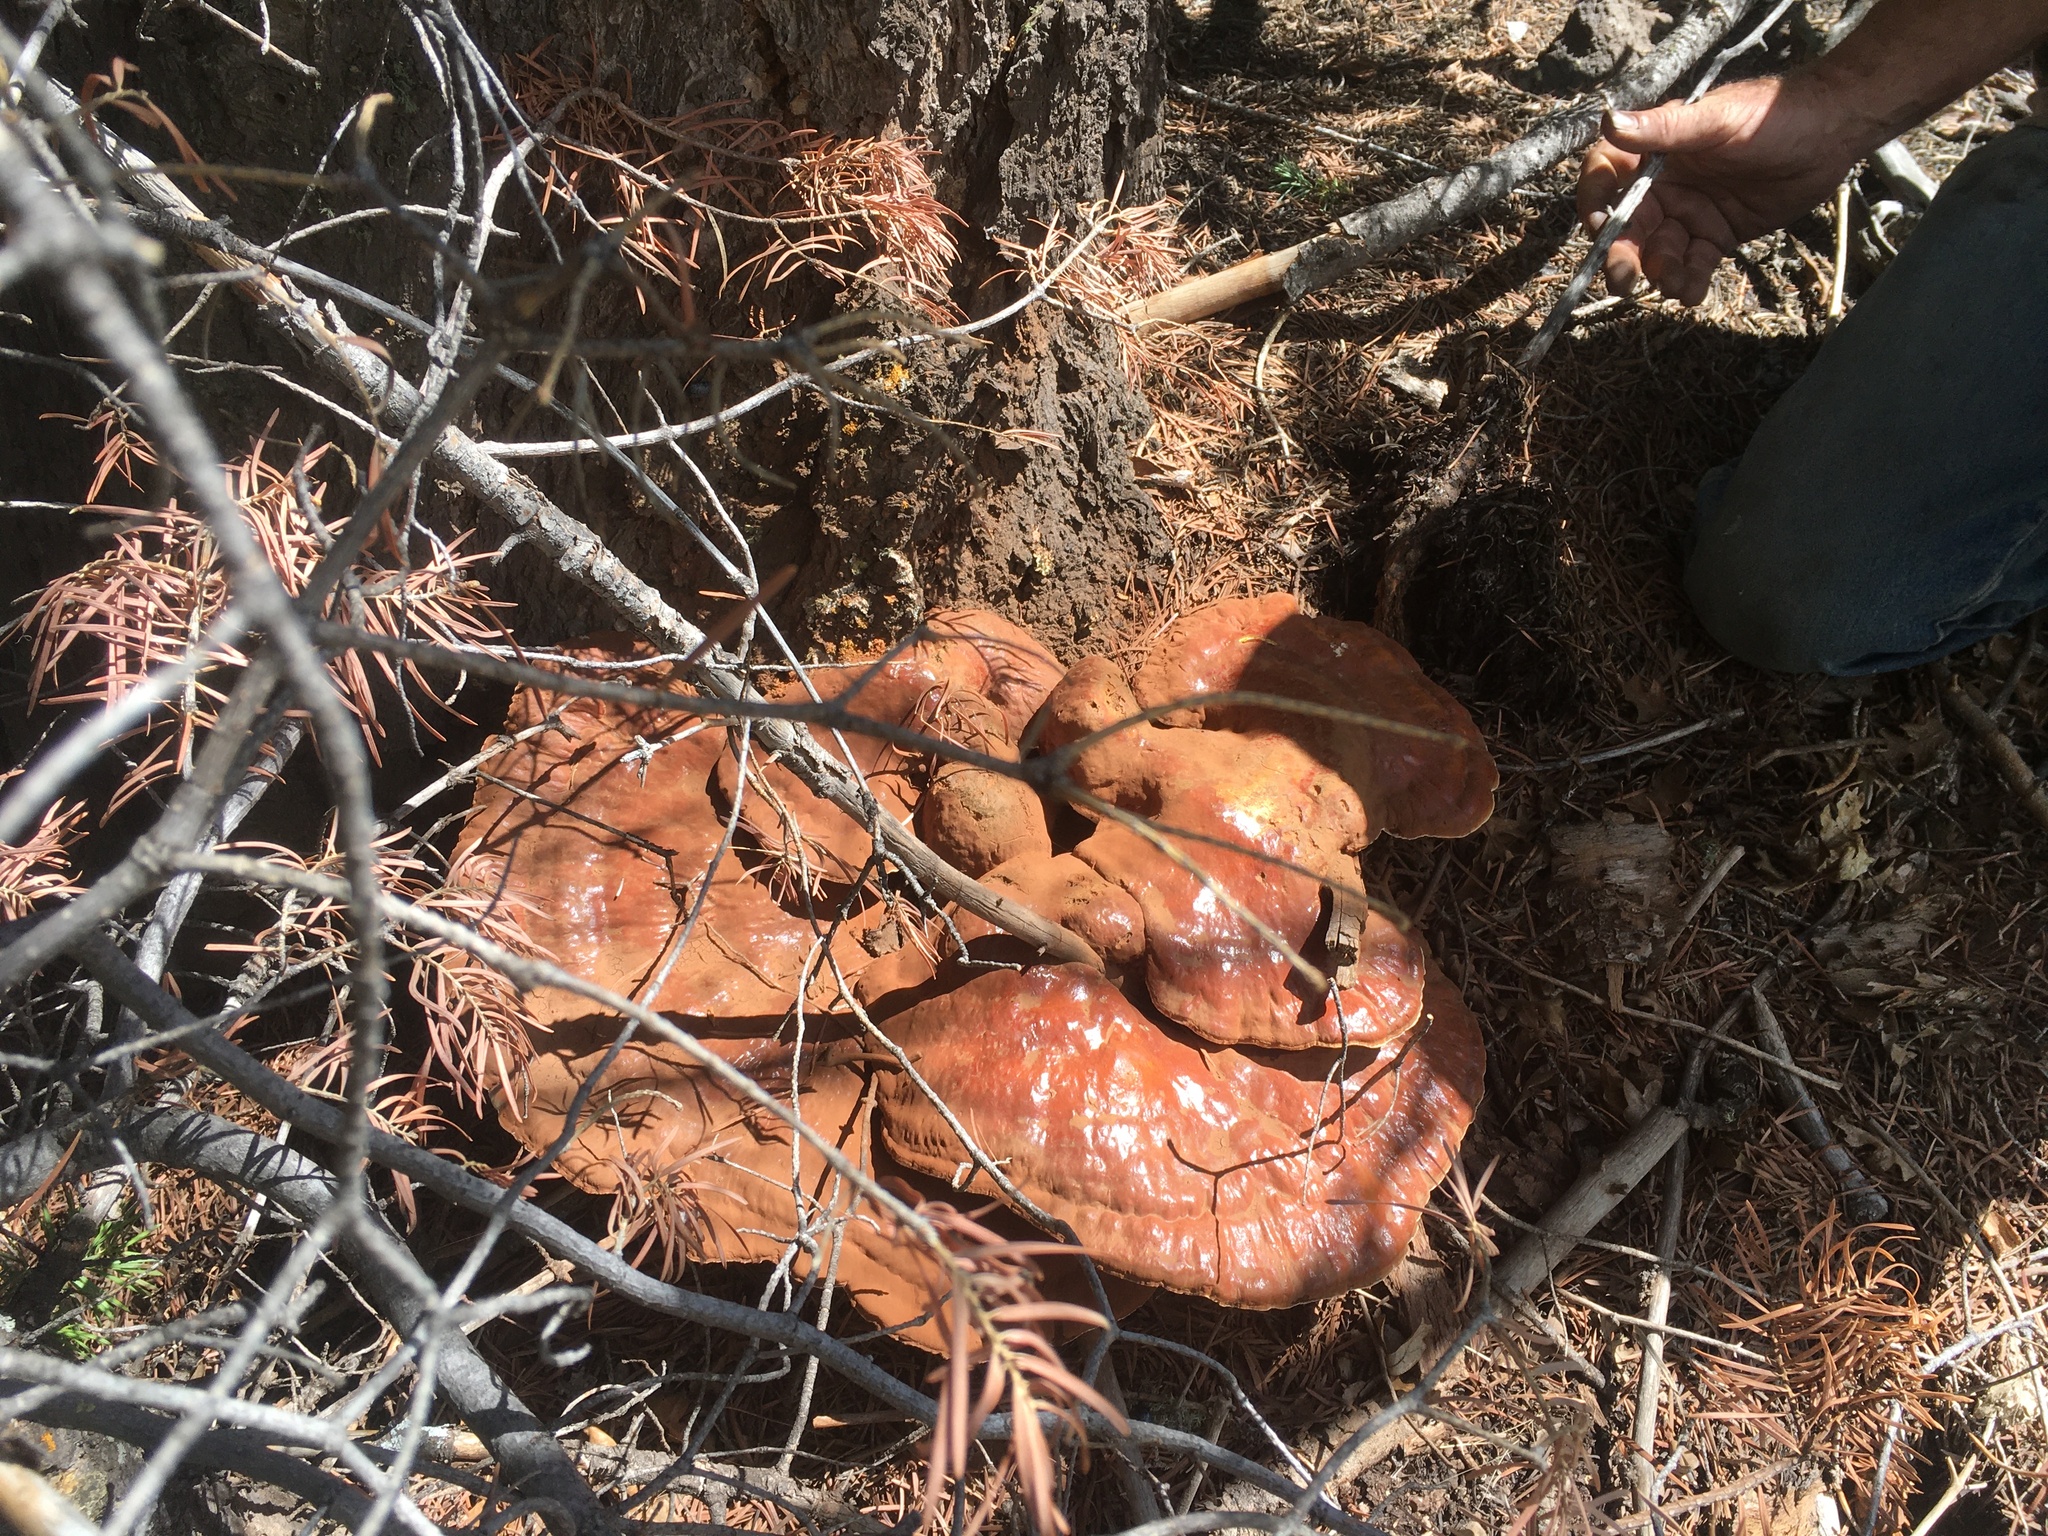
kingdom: Fungi
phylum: Basidiomycota
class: Agaricomycetes
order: Polyporales
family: Polyporaceae
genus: Ganoderma
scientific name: Ganoderma tsugae
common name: Hemlock varnish shelf
